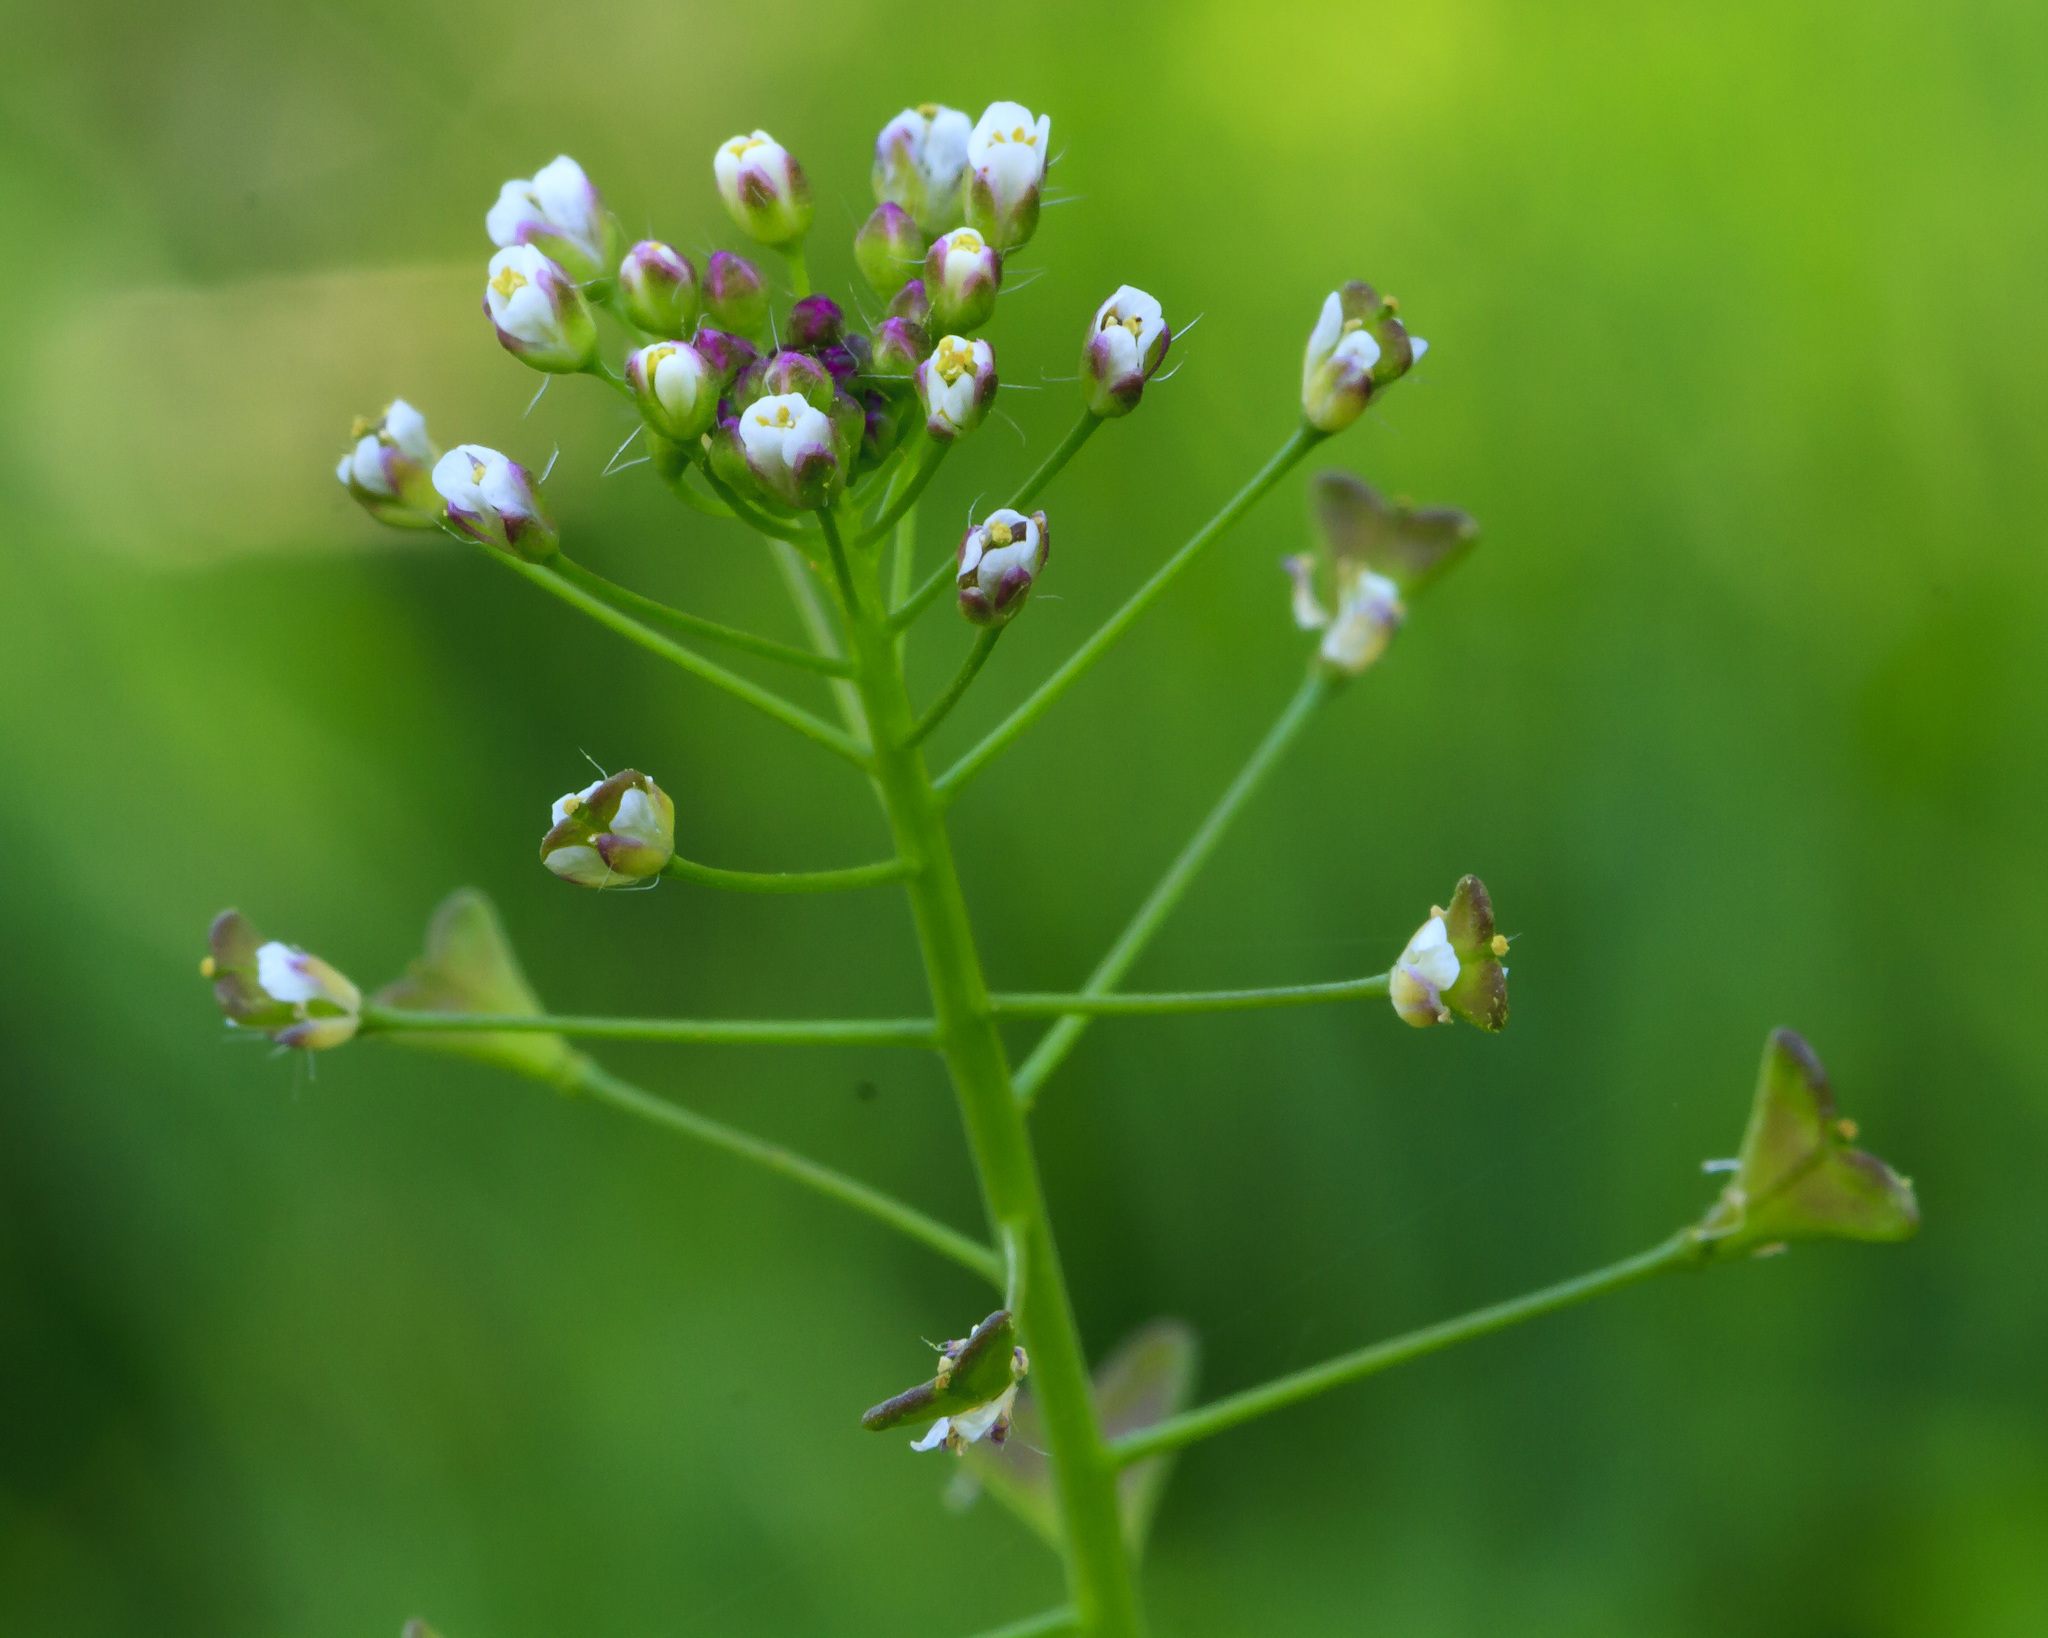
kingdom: Plantae
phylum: Tracheophyta
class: Magnoliopsida
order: Brassicales
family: Brassicaceae
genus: Capsella
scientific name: Capsella bursa-pastoris
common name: Shepherd's purse
